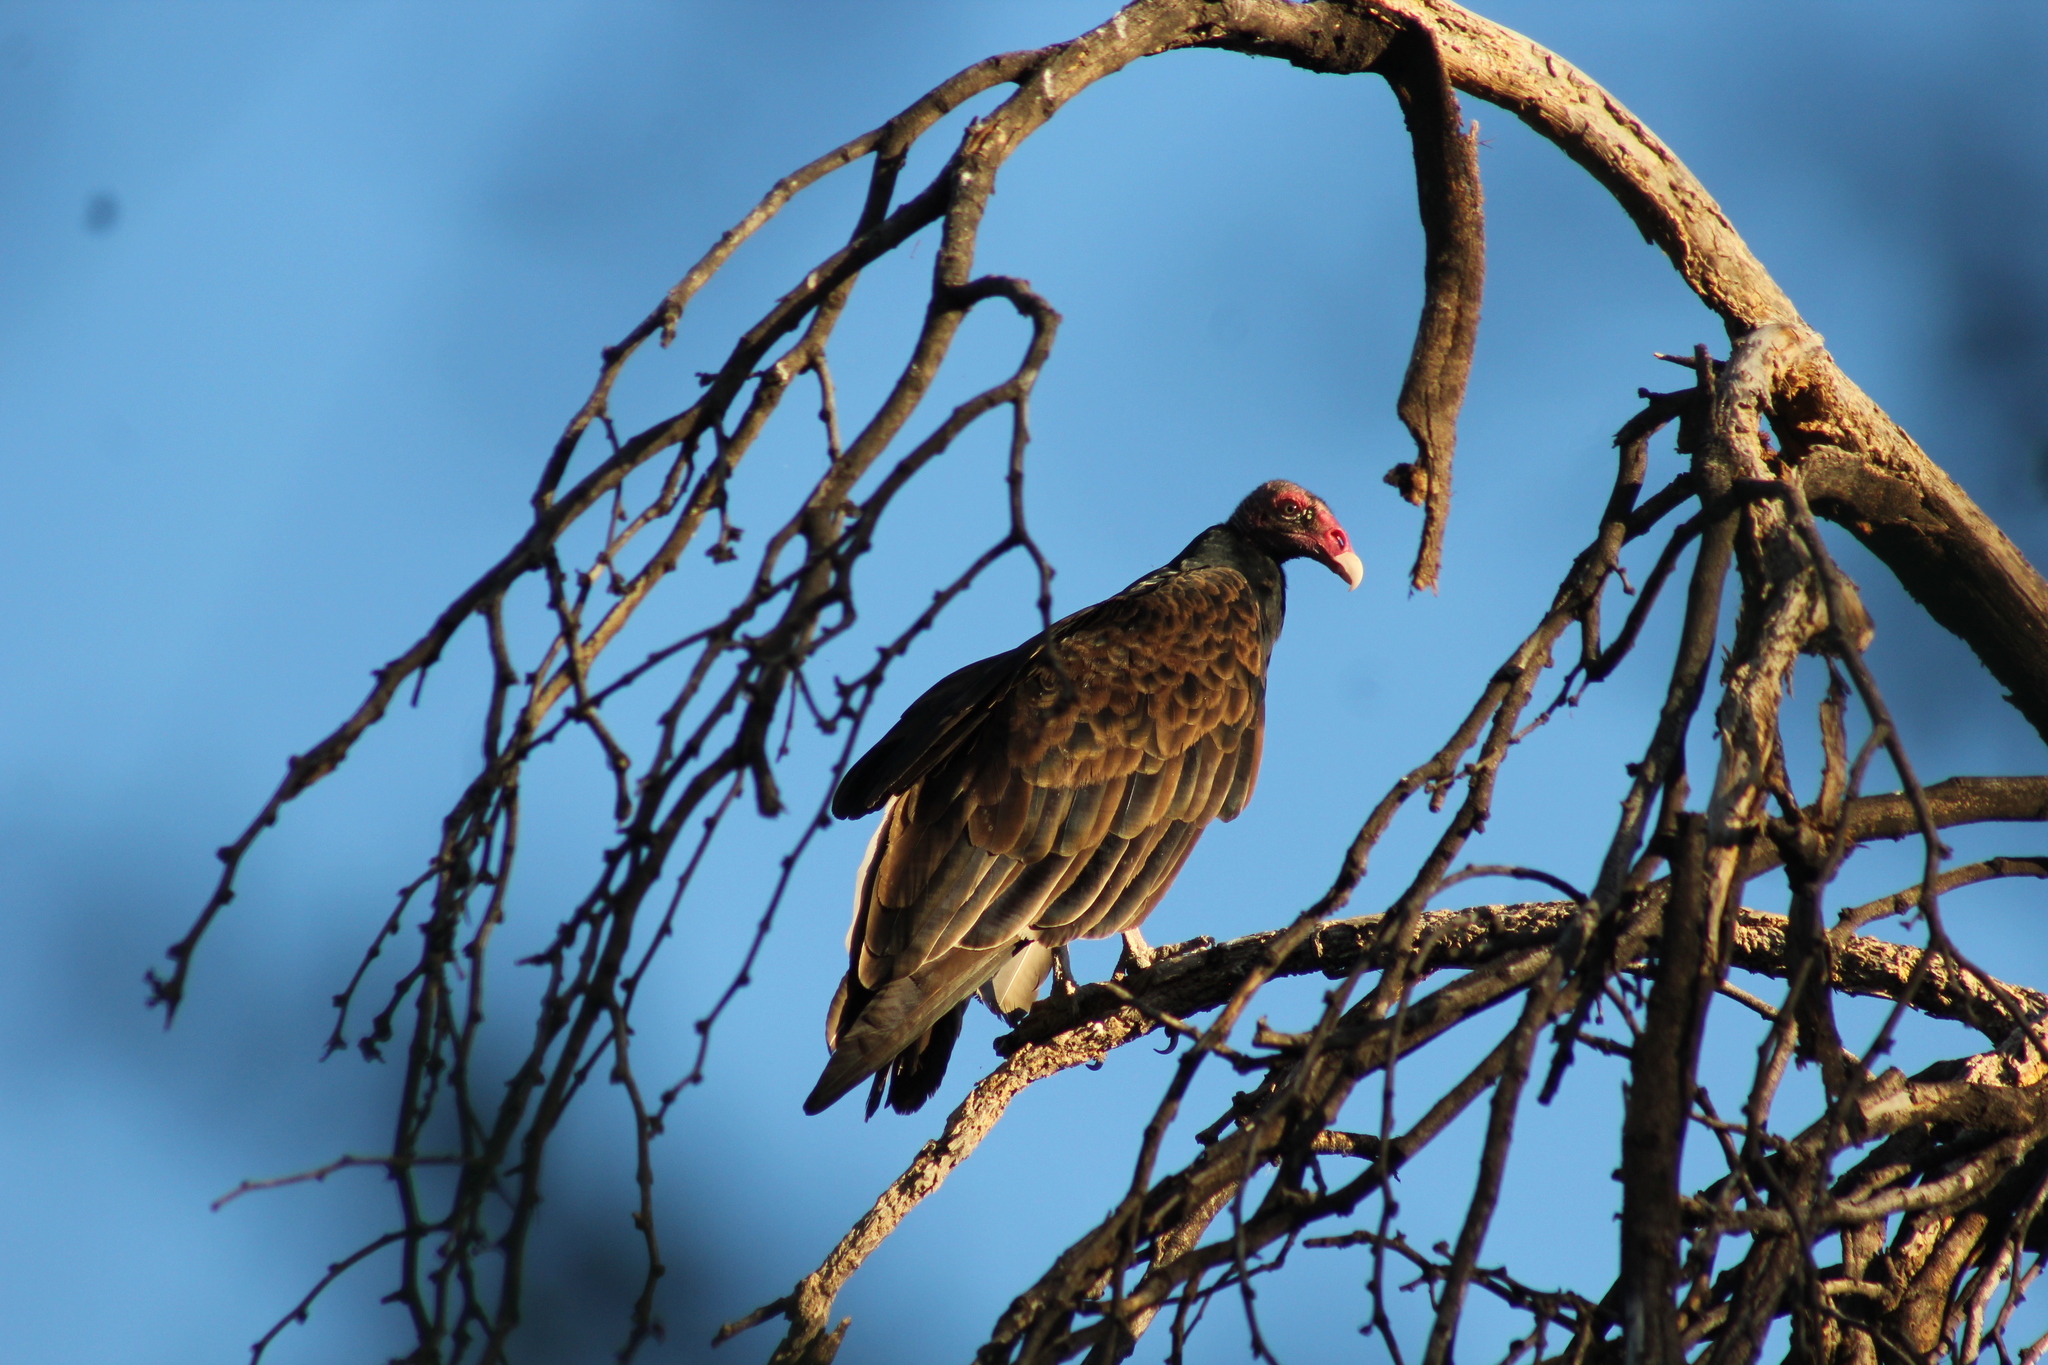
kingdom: Animalia
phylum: Chordata
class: Aves
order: Accipitriformes
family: Cathartidae
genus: Cathartes
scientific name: Cathartes aura
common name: Turkey vulture
